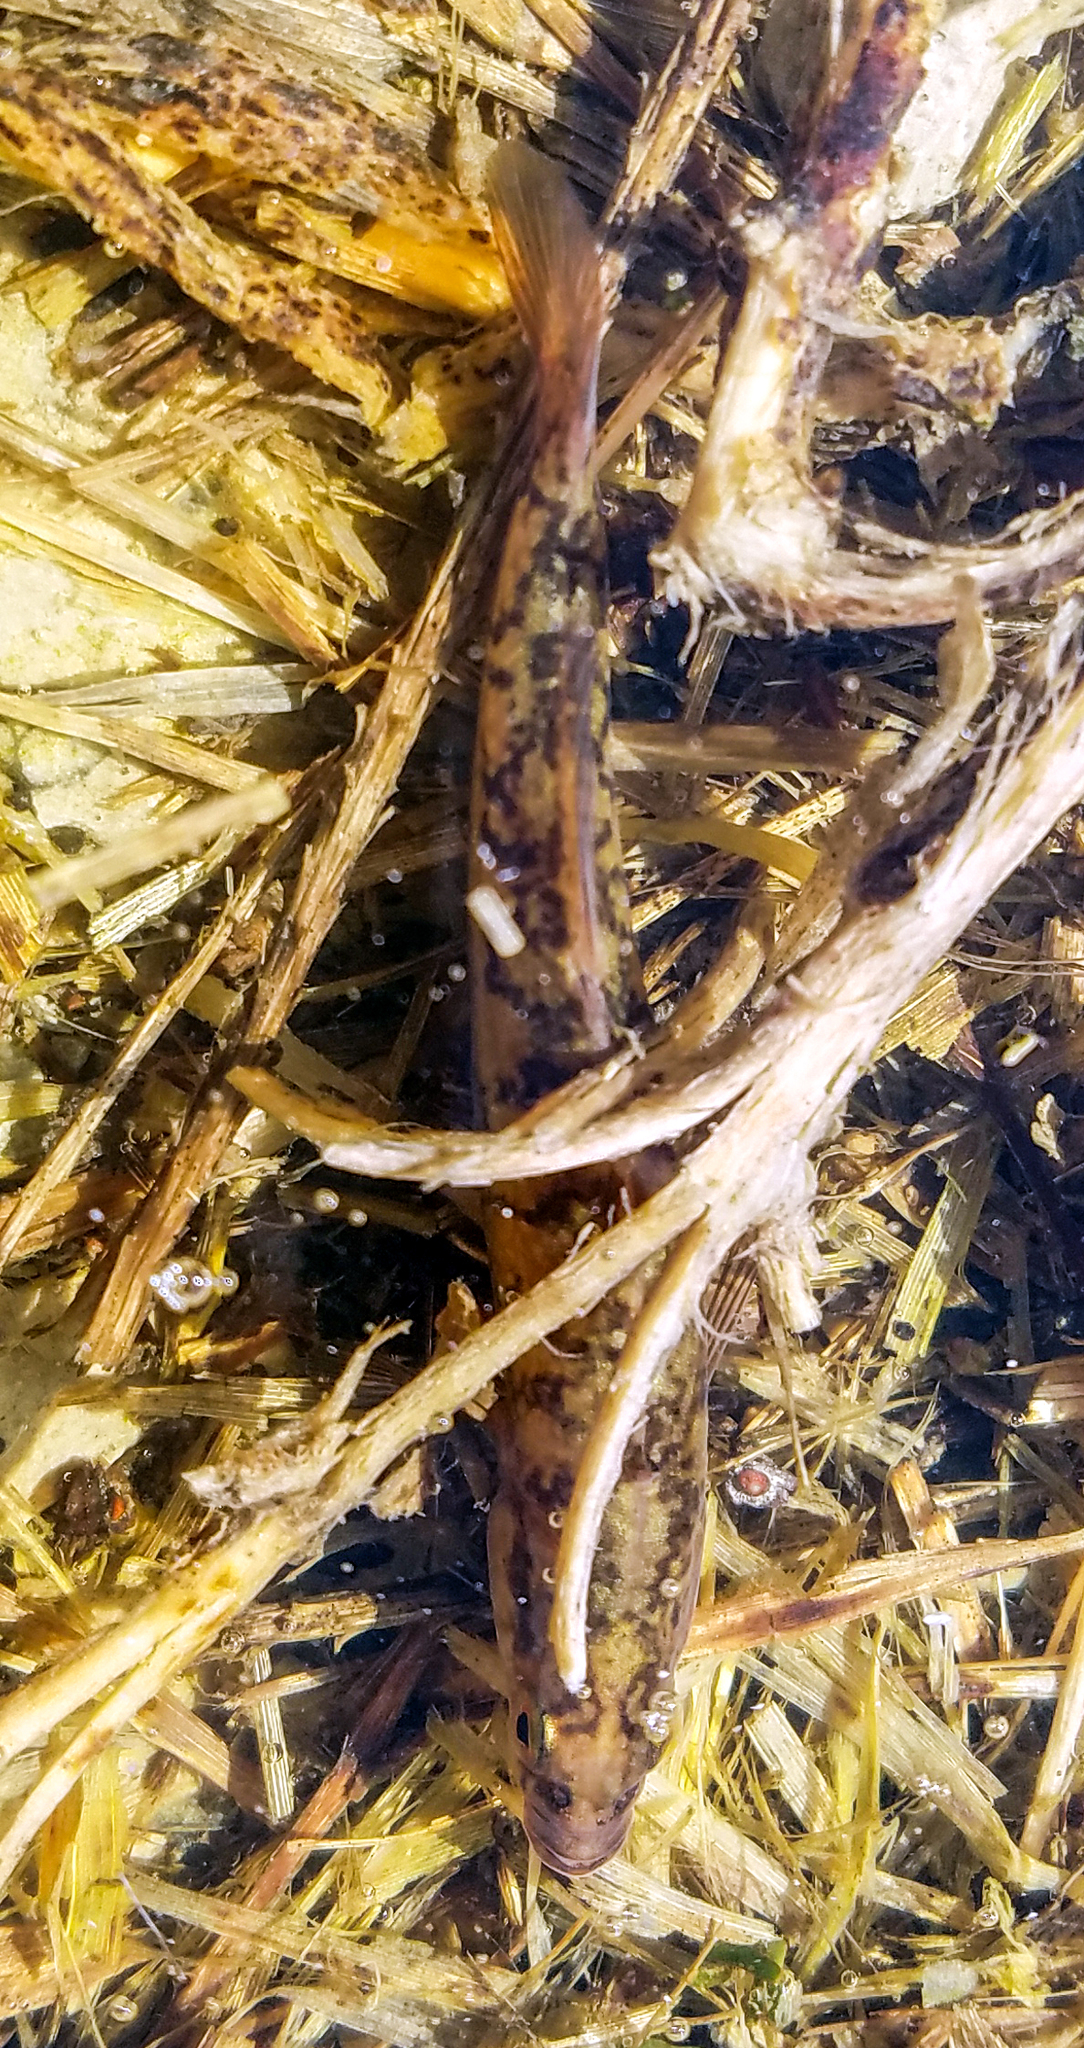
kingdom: Animalia
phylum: Chordata
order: Gasterosteiformes
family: Gasterosteidae
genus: Culaea
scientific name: Culaea inconstans
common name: Brook stickleback
